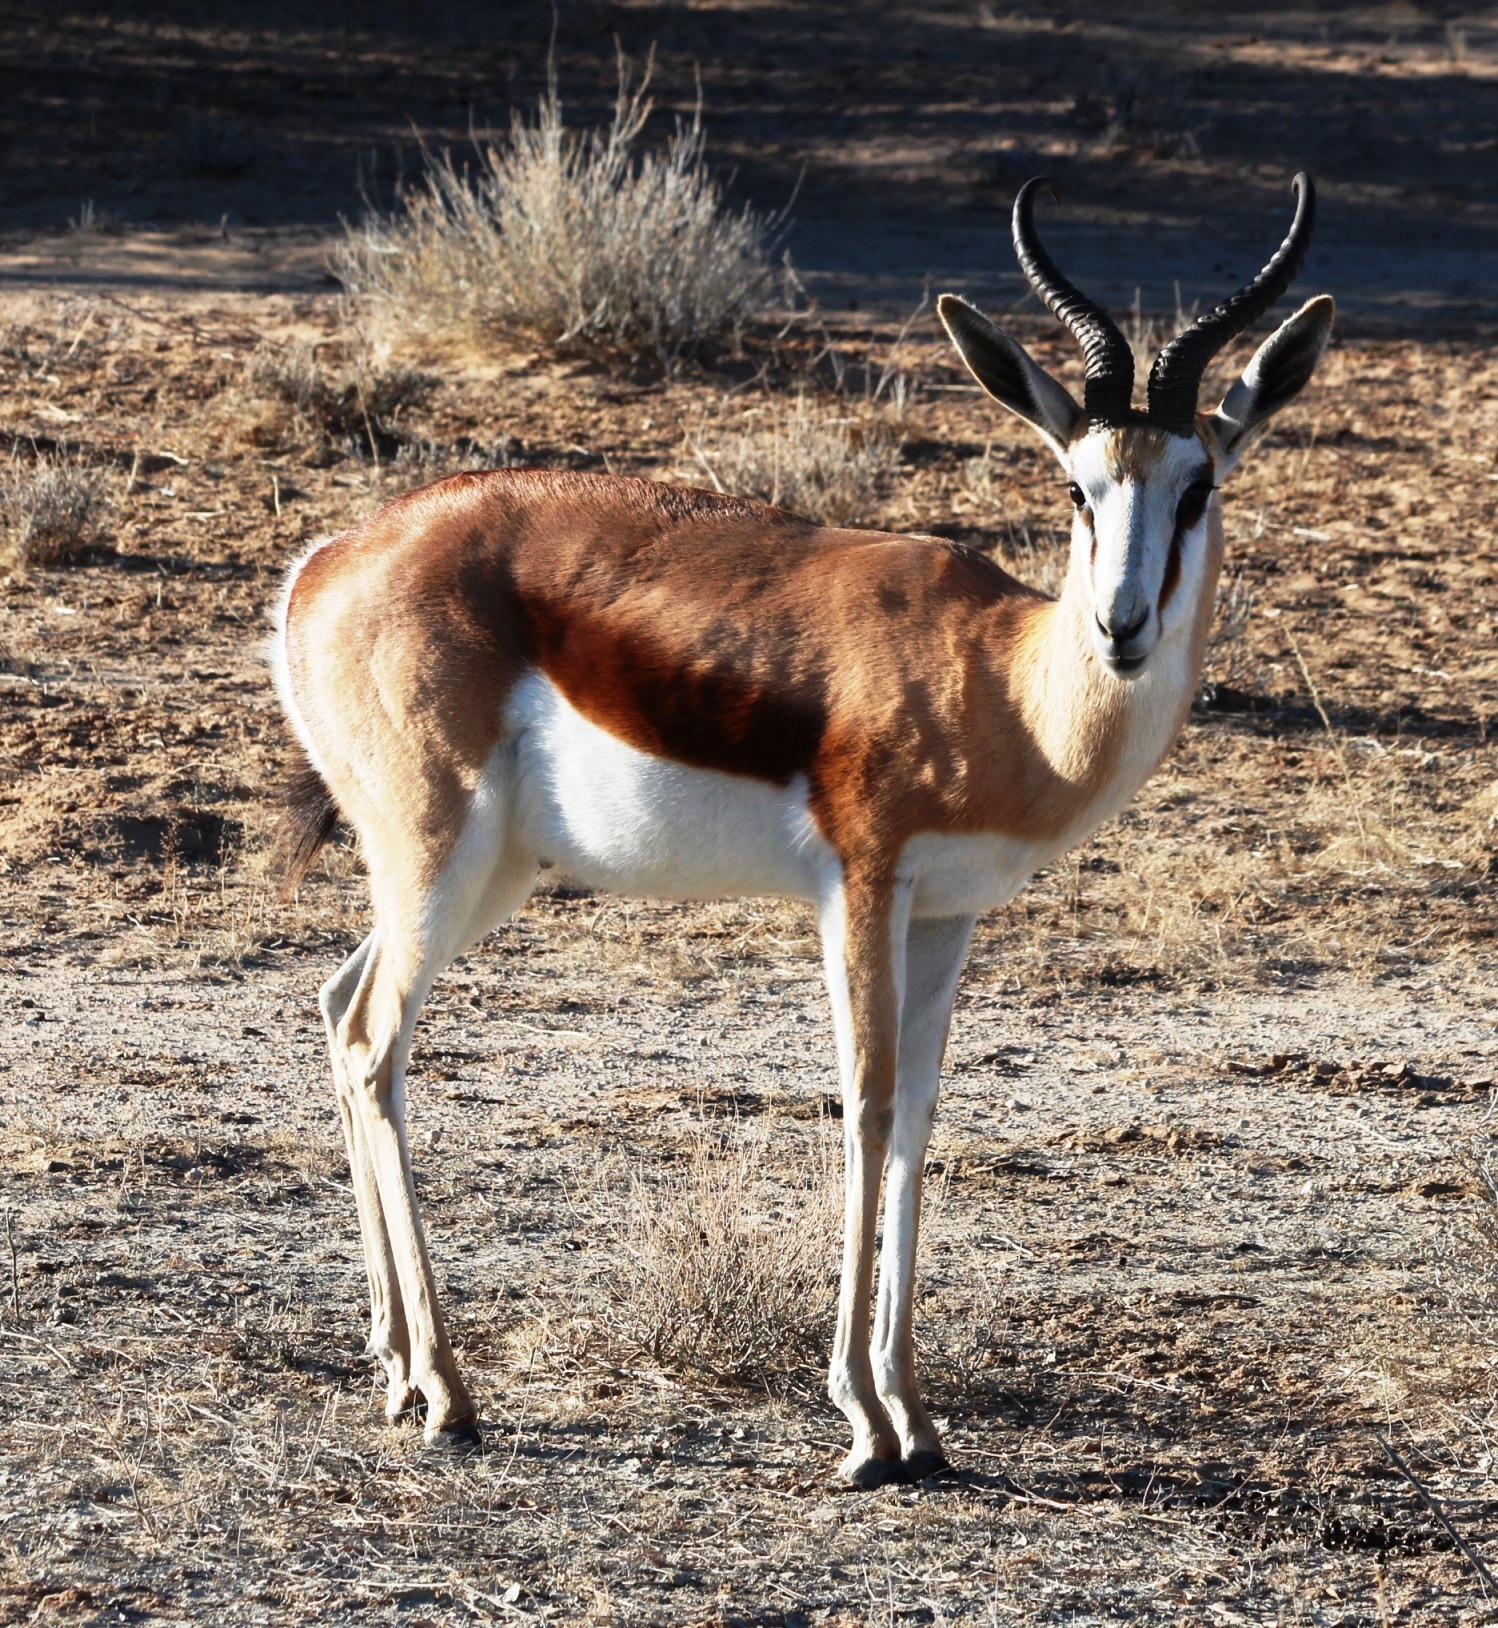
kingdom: Animalia
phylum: Chordata
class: Mammalia
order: Artiodactyla
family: Bovidae
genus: Antidorcas
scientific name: Antidorcas marsupialis
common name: Springbok
